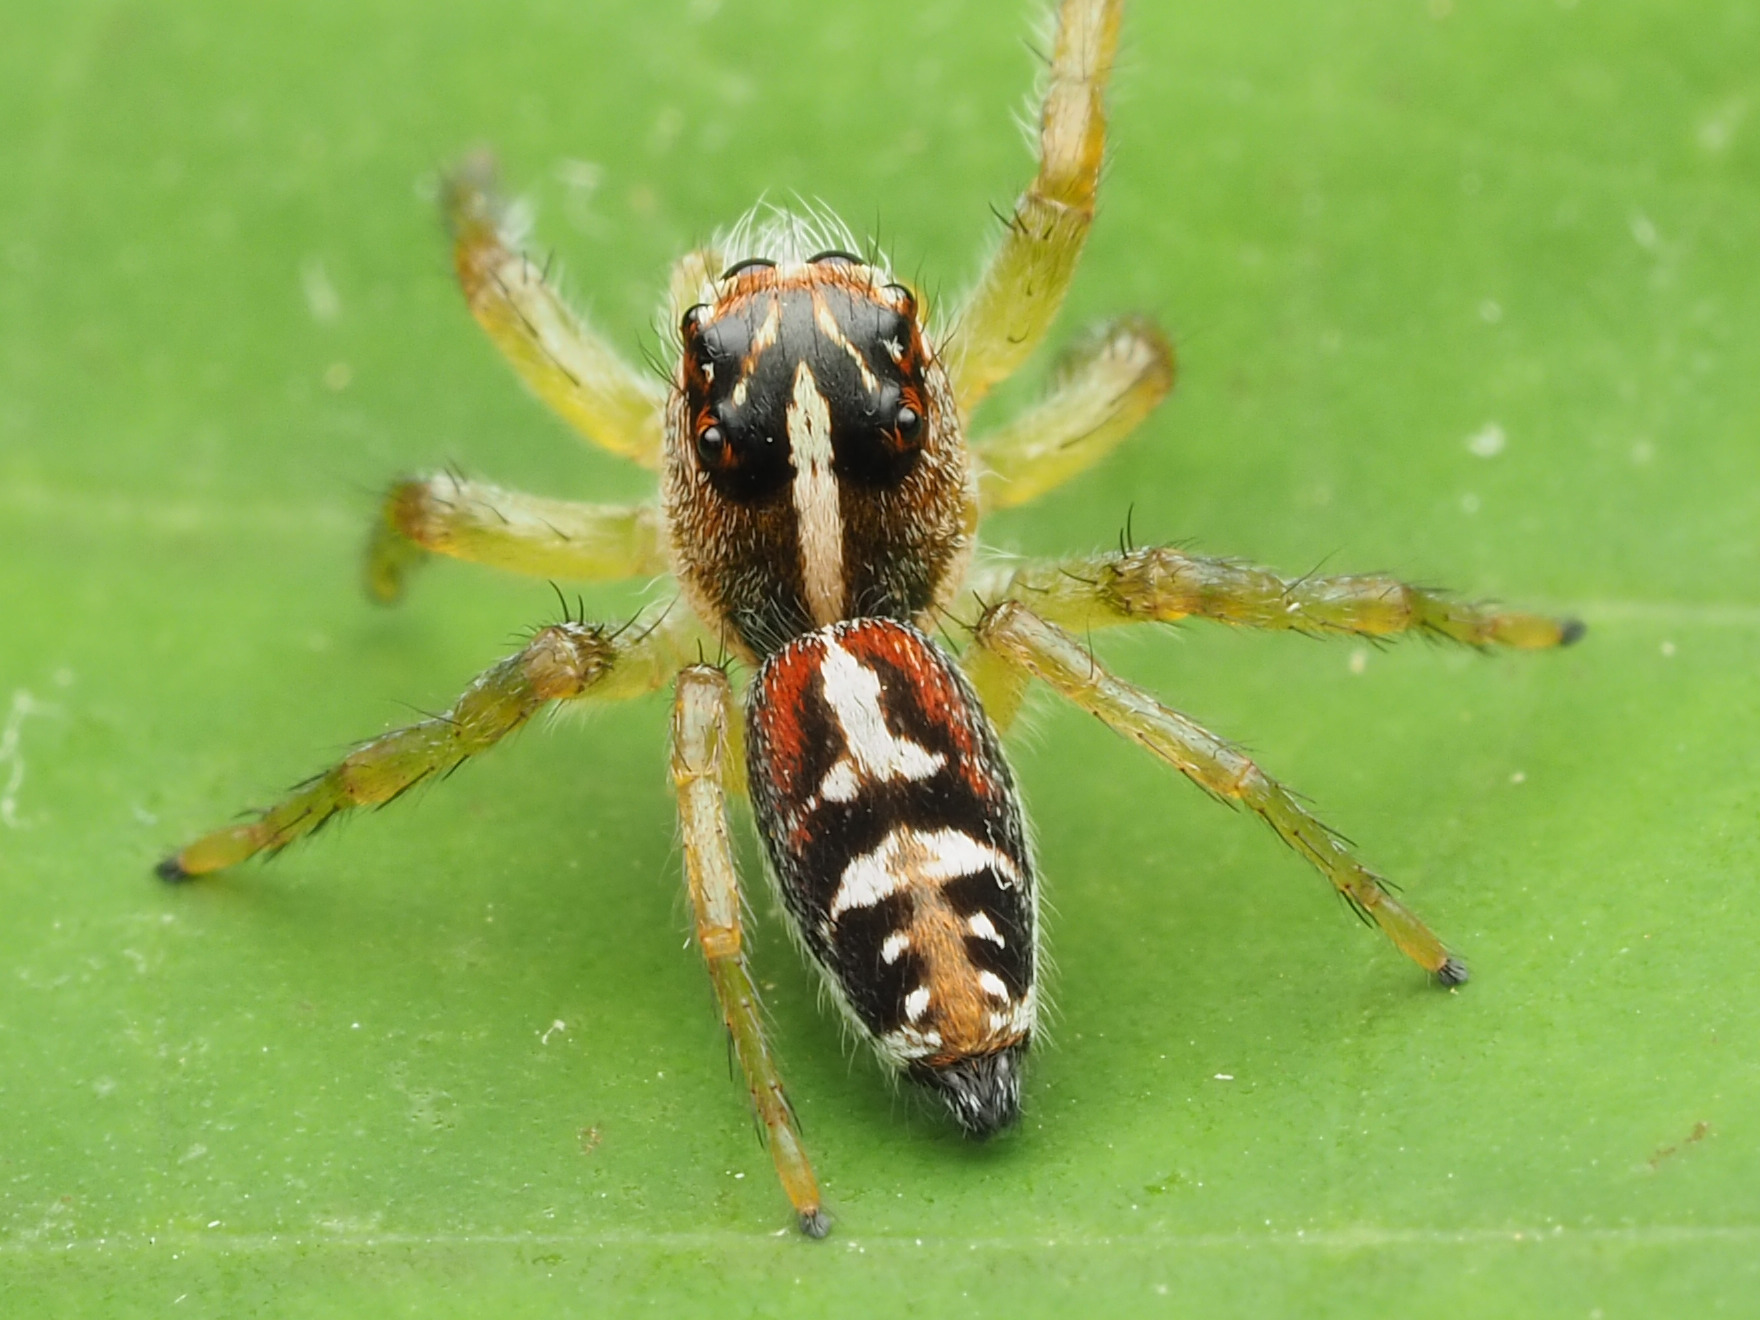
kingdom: Animalia
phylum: Arthropoda
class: Arachnida
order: Araneae
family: Salticidae
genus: Frigga
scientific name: Frigga pratensis
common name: Jumping spiders
